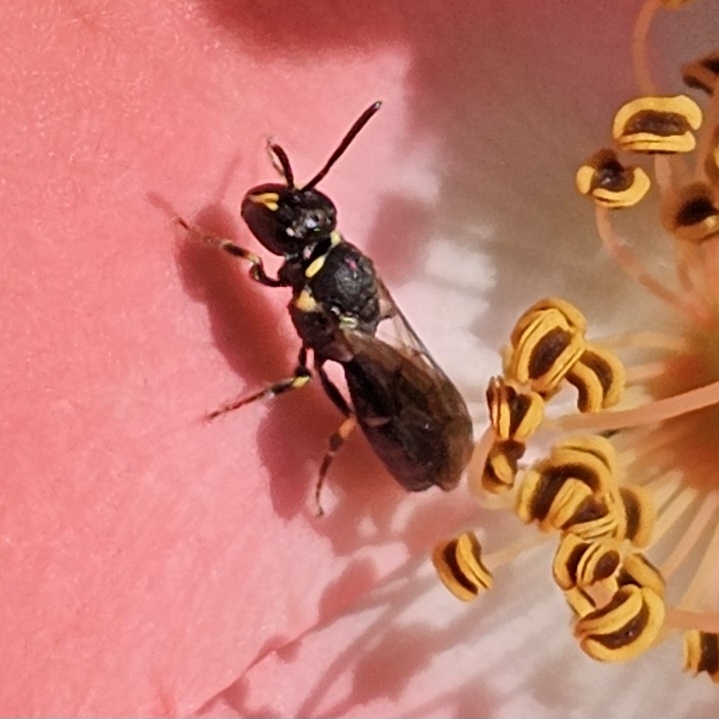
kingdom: Animalia
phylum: Arthropoda
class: Insecta
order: Hymenoptera
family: Colletidae
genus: Hylaeus
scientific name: Hylaeus modestus
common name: Yellow-faced bee
